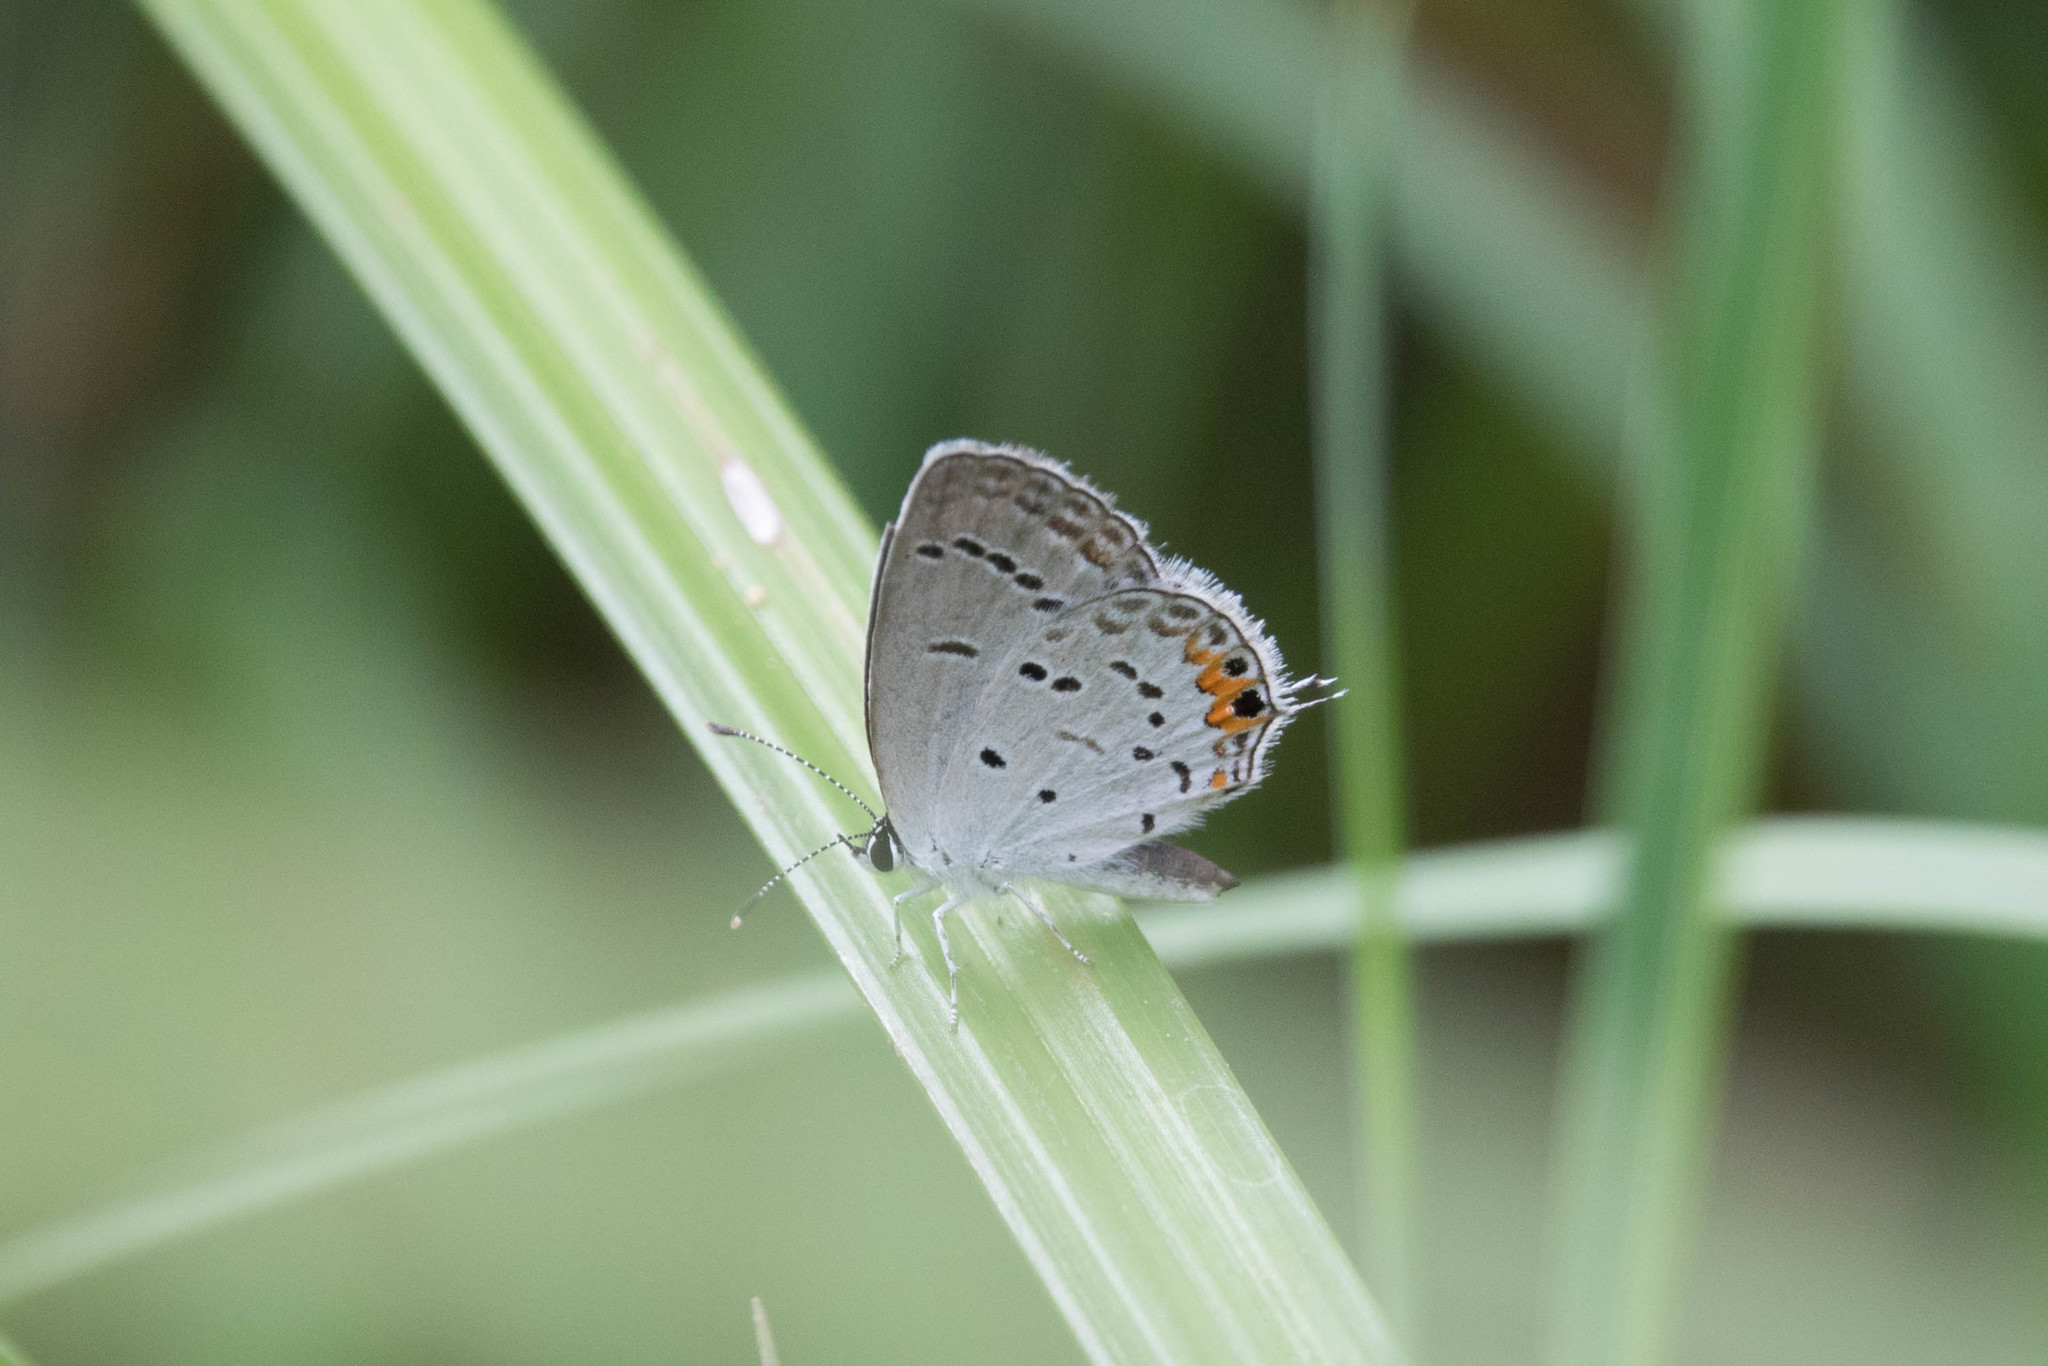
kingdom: Animalia
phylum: Arthropoda
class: Insecta
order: Lepidoptera
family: Lycaenidae
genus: Elkalyce
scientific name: Elkalyce comyntas
